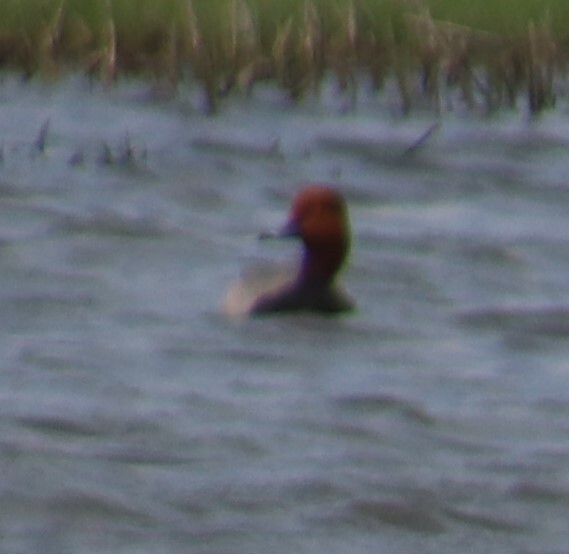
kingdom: Animalia
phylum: Chordata
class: Aves
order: Anseriformes
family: Anatidae
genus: Aythya
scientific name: Aythya americana
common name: Redhead
